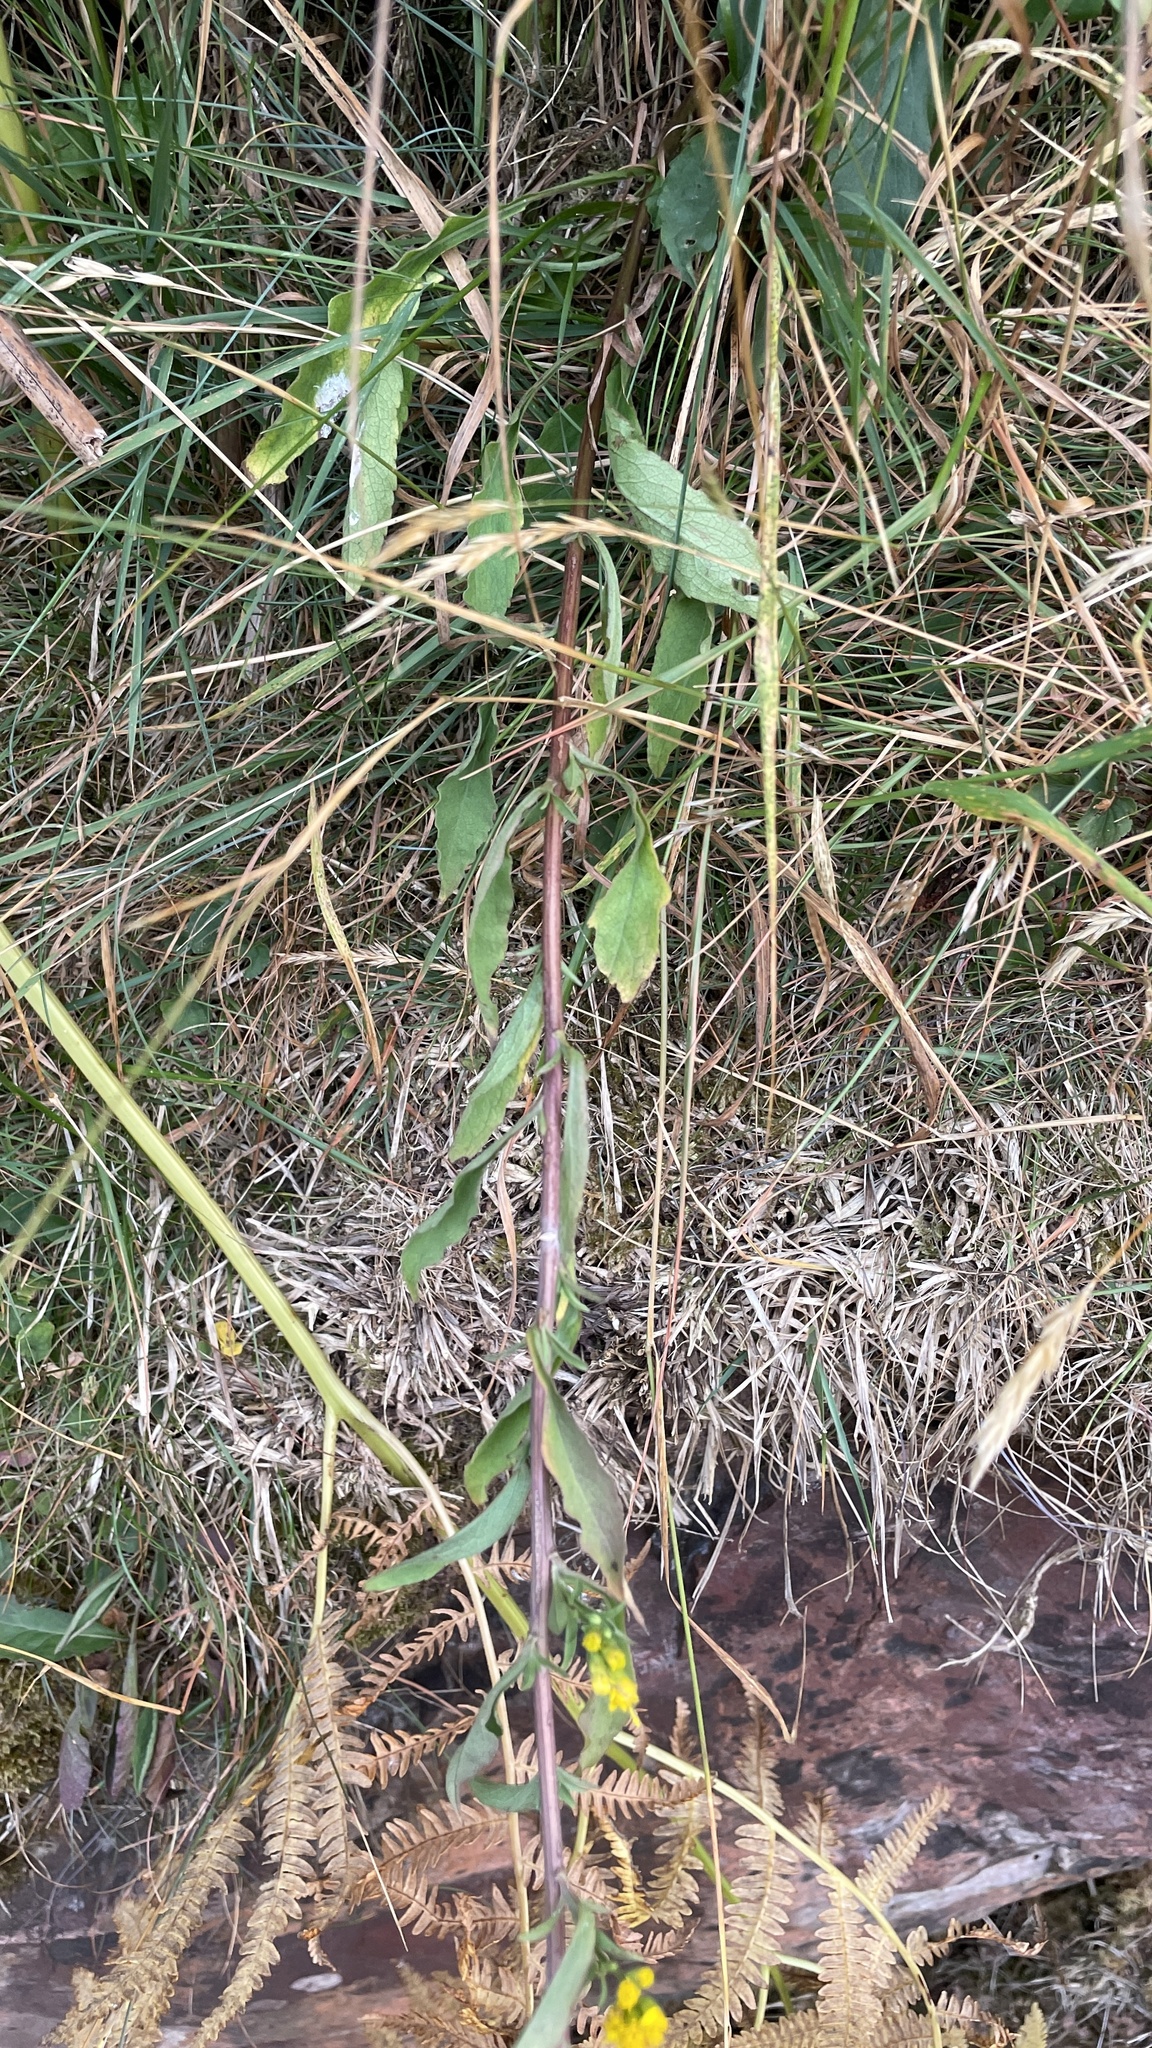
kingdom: Plantae
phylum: Tracheophyta
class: Magnoliopsida
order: Asterales
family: Asteraceae
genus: Solidago
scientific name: Solidago virgaurea
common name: Goldenrod
